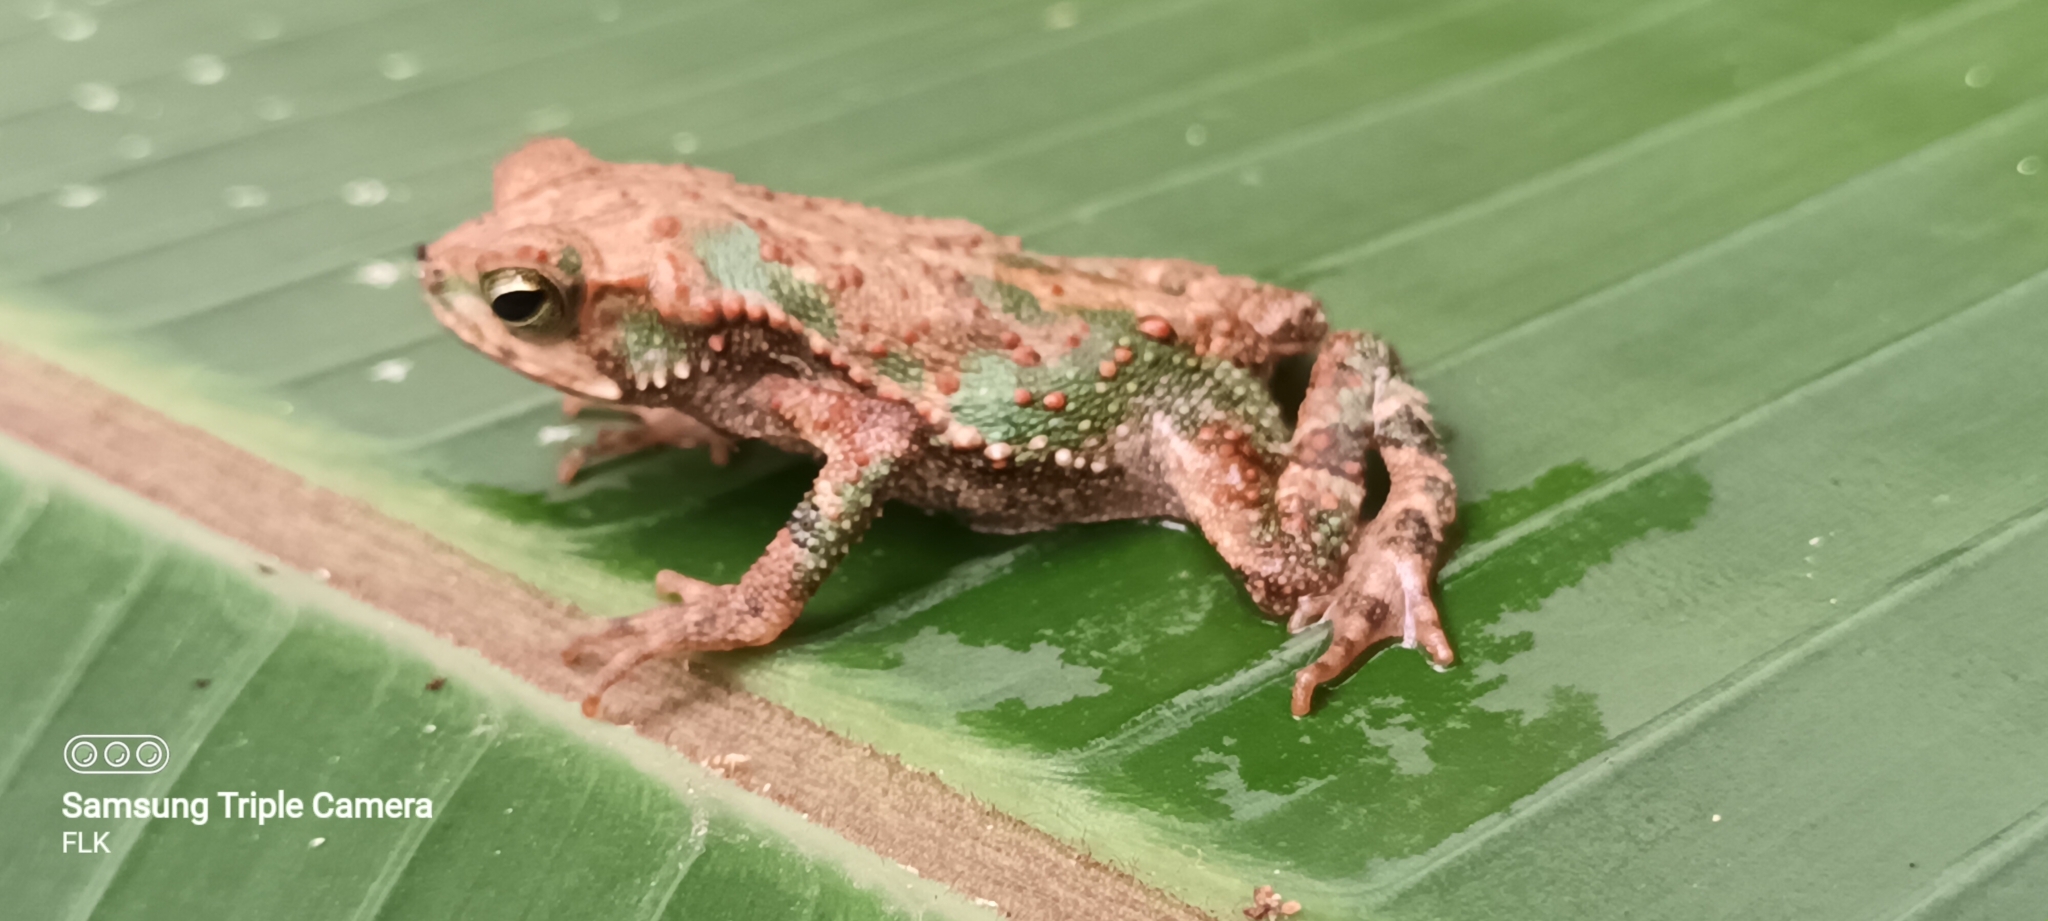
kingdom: Animalia
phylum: Chordata
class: Amphibia
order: Anura
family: Bufonidae
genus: Incilius
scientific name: Incilius coniferus
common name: Evergreen toad
